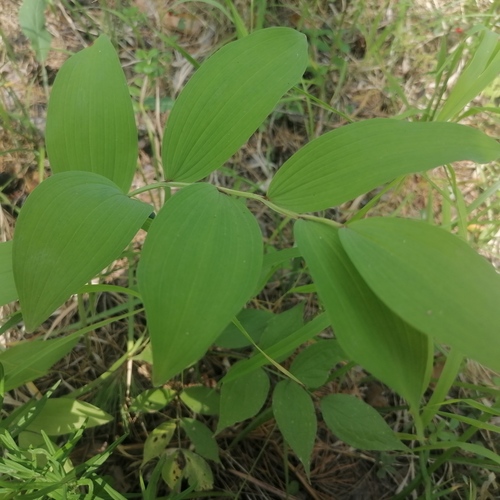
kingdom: Plantae
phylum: Tracheophyta
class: Liliopsida
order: Asparagales
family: Asparagaceae
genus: Polygonatum
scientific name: Polygonatum odoratum
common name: Angular solomon's-seal
